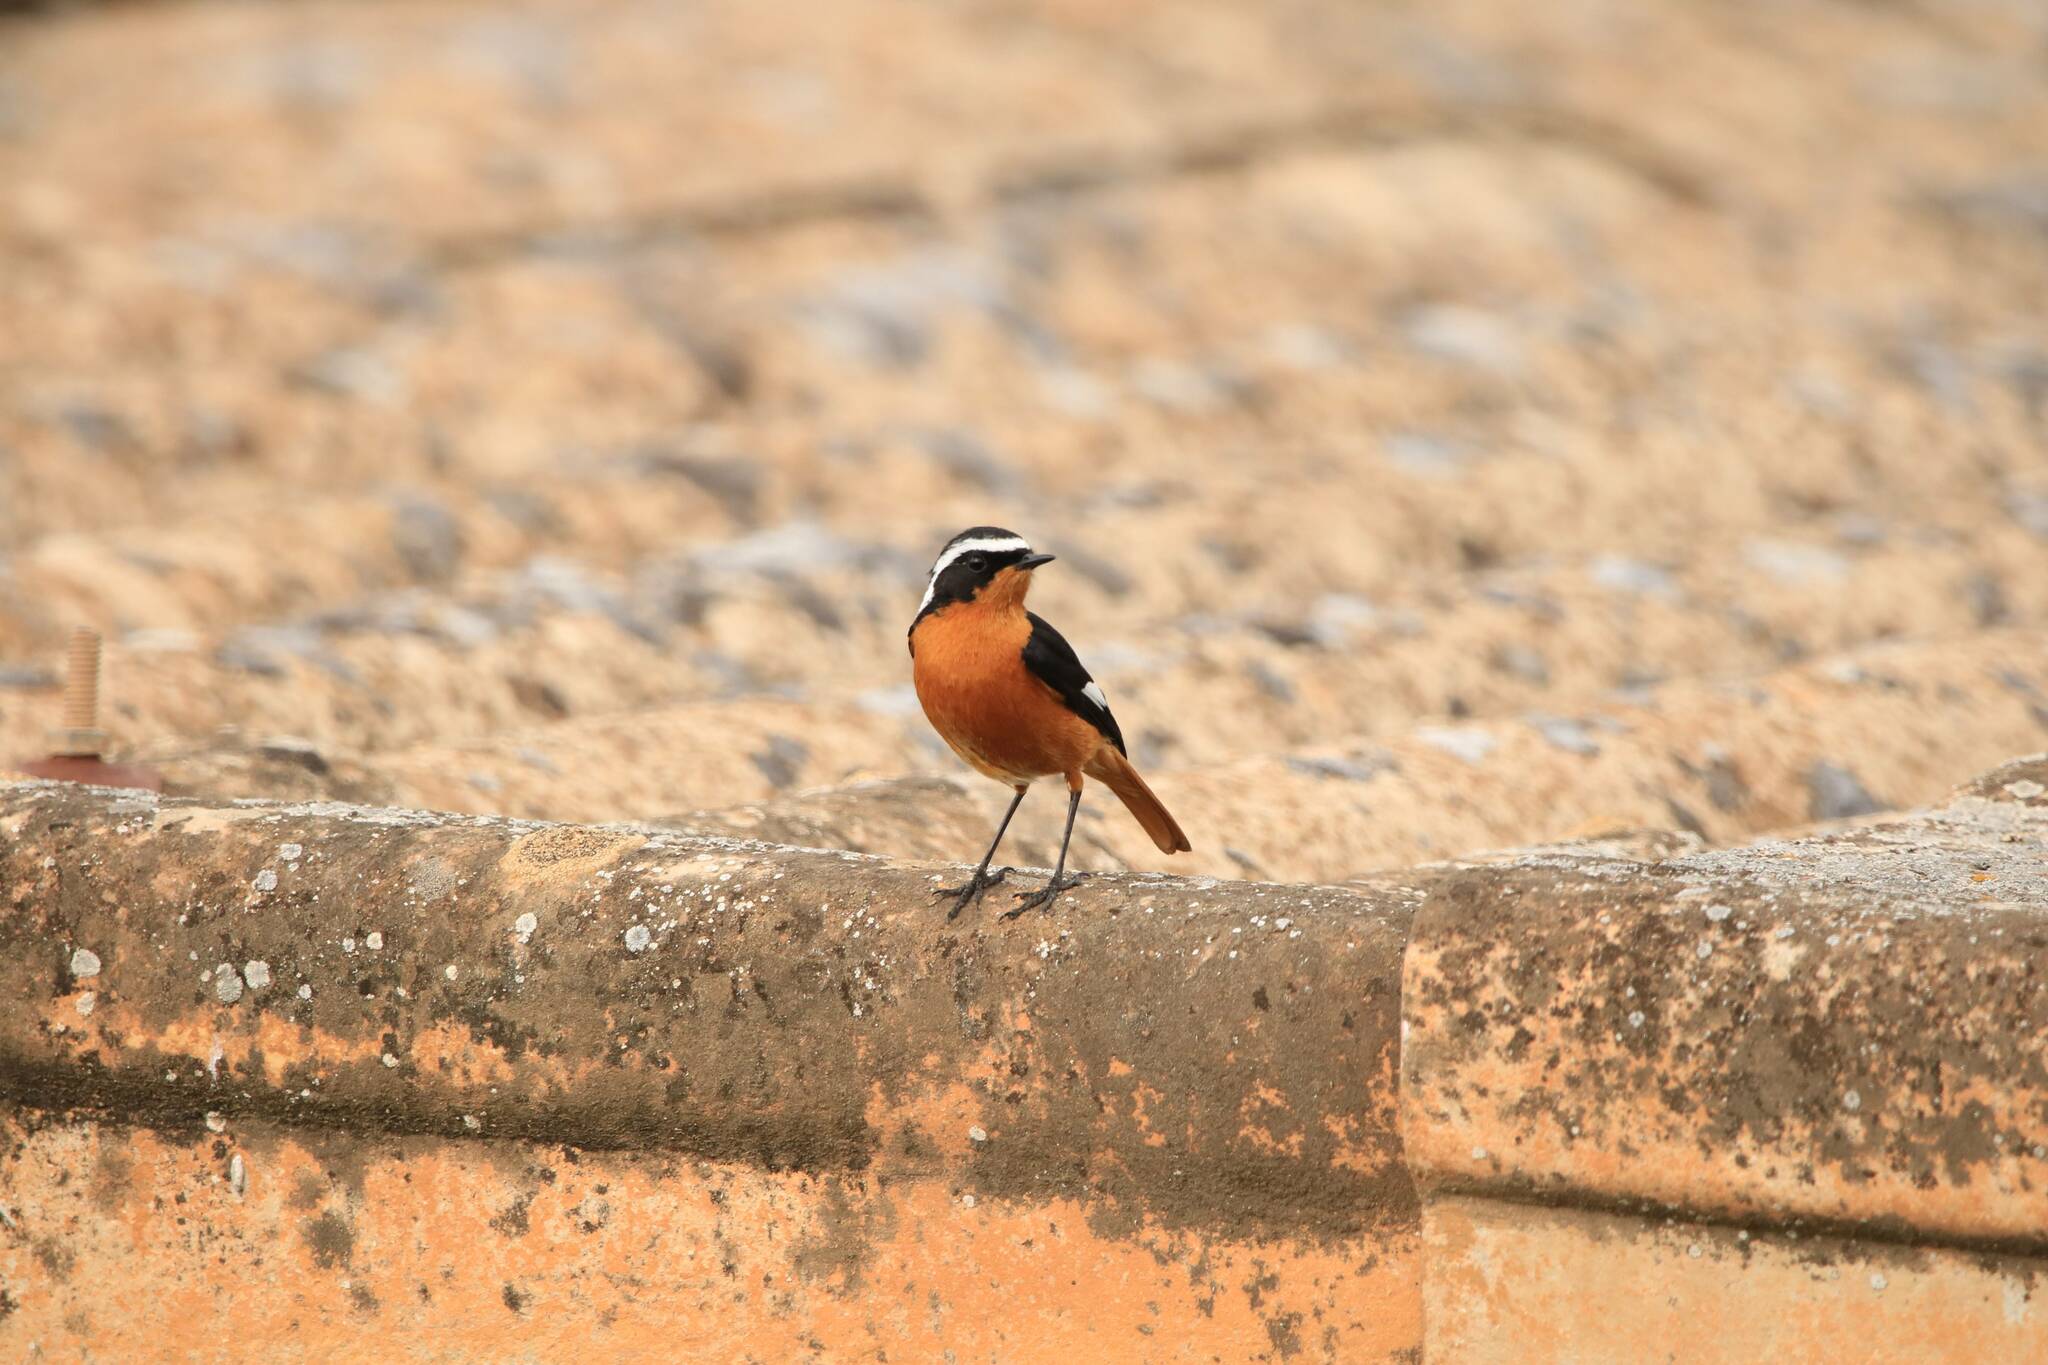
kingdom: Animalia
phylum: Chordata
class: Aves
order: Passeriformes
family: Muscicapidae
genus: Phoenicurus
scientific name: Phoenicurus moussieri
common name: Moussier's redstart
